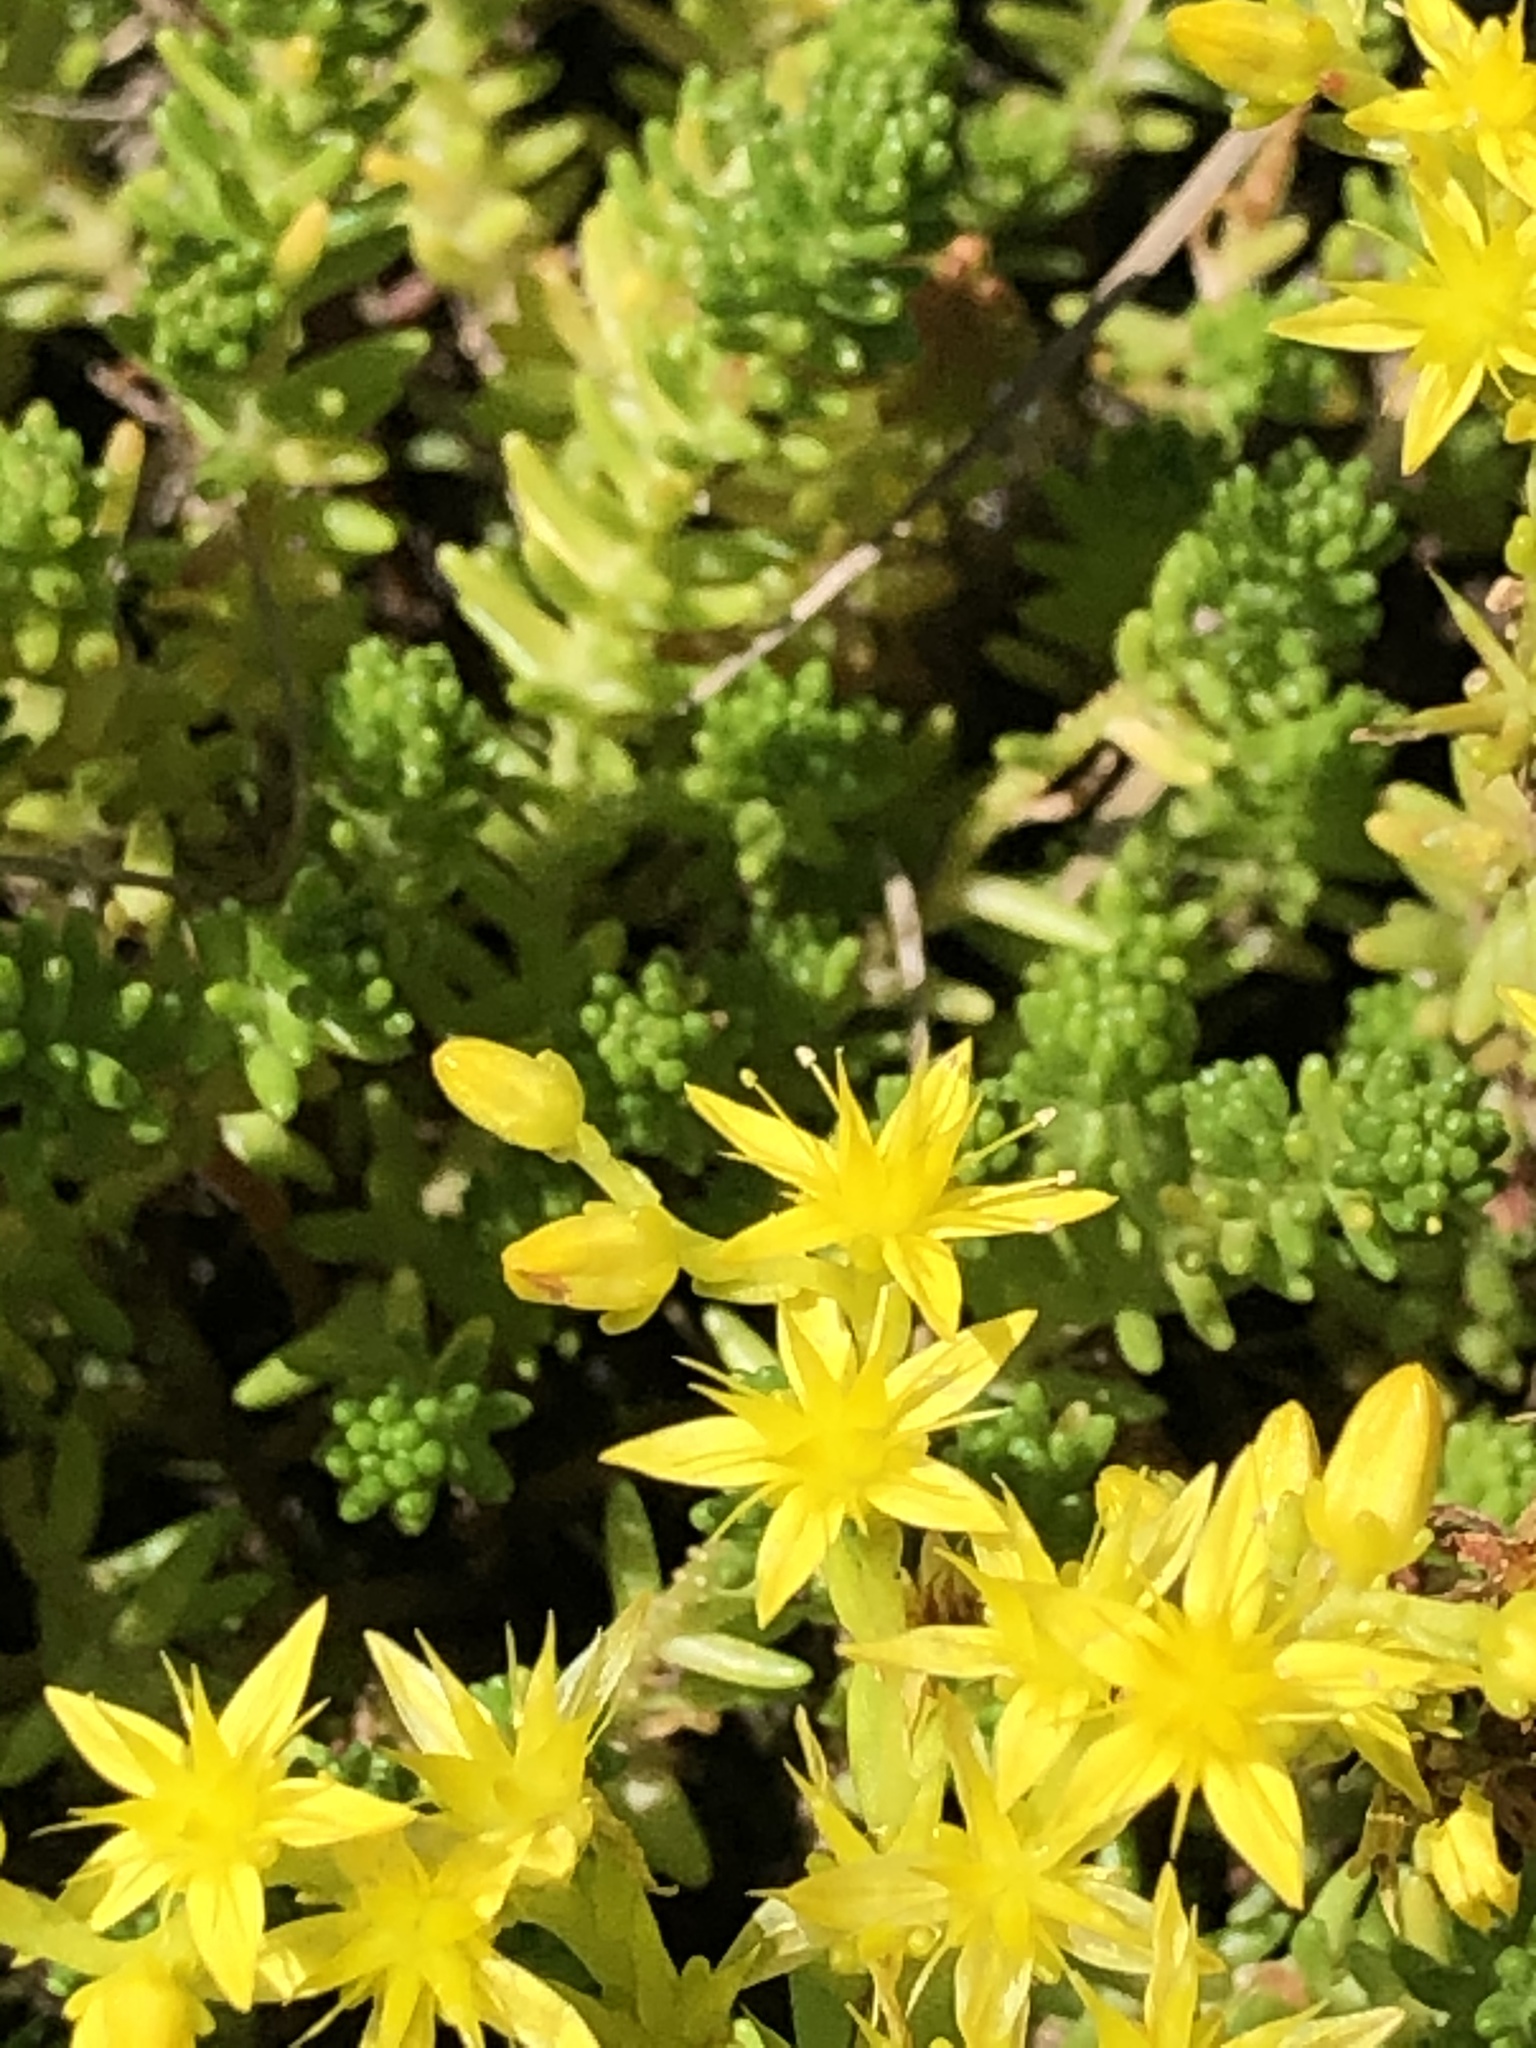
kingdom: Plantae
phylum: Tracheophyta
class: Magnoliopsida
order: Saxifragales
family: Crassulaceae
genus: Sedum
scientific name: Sedum sexangulare
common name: Tasteless stonecrop
